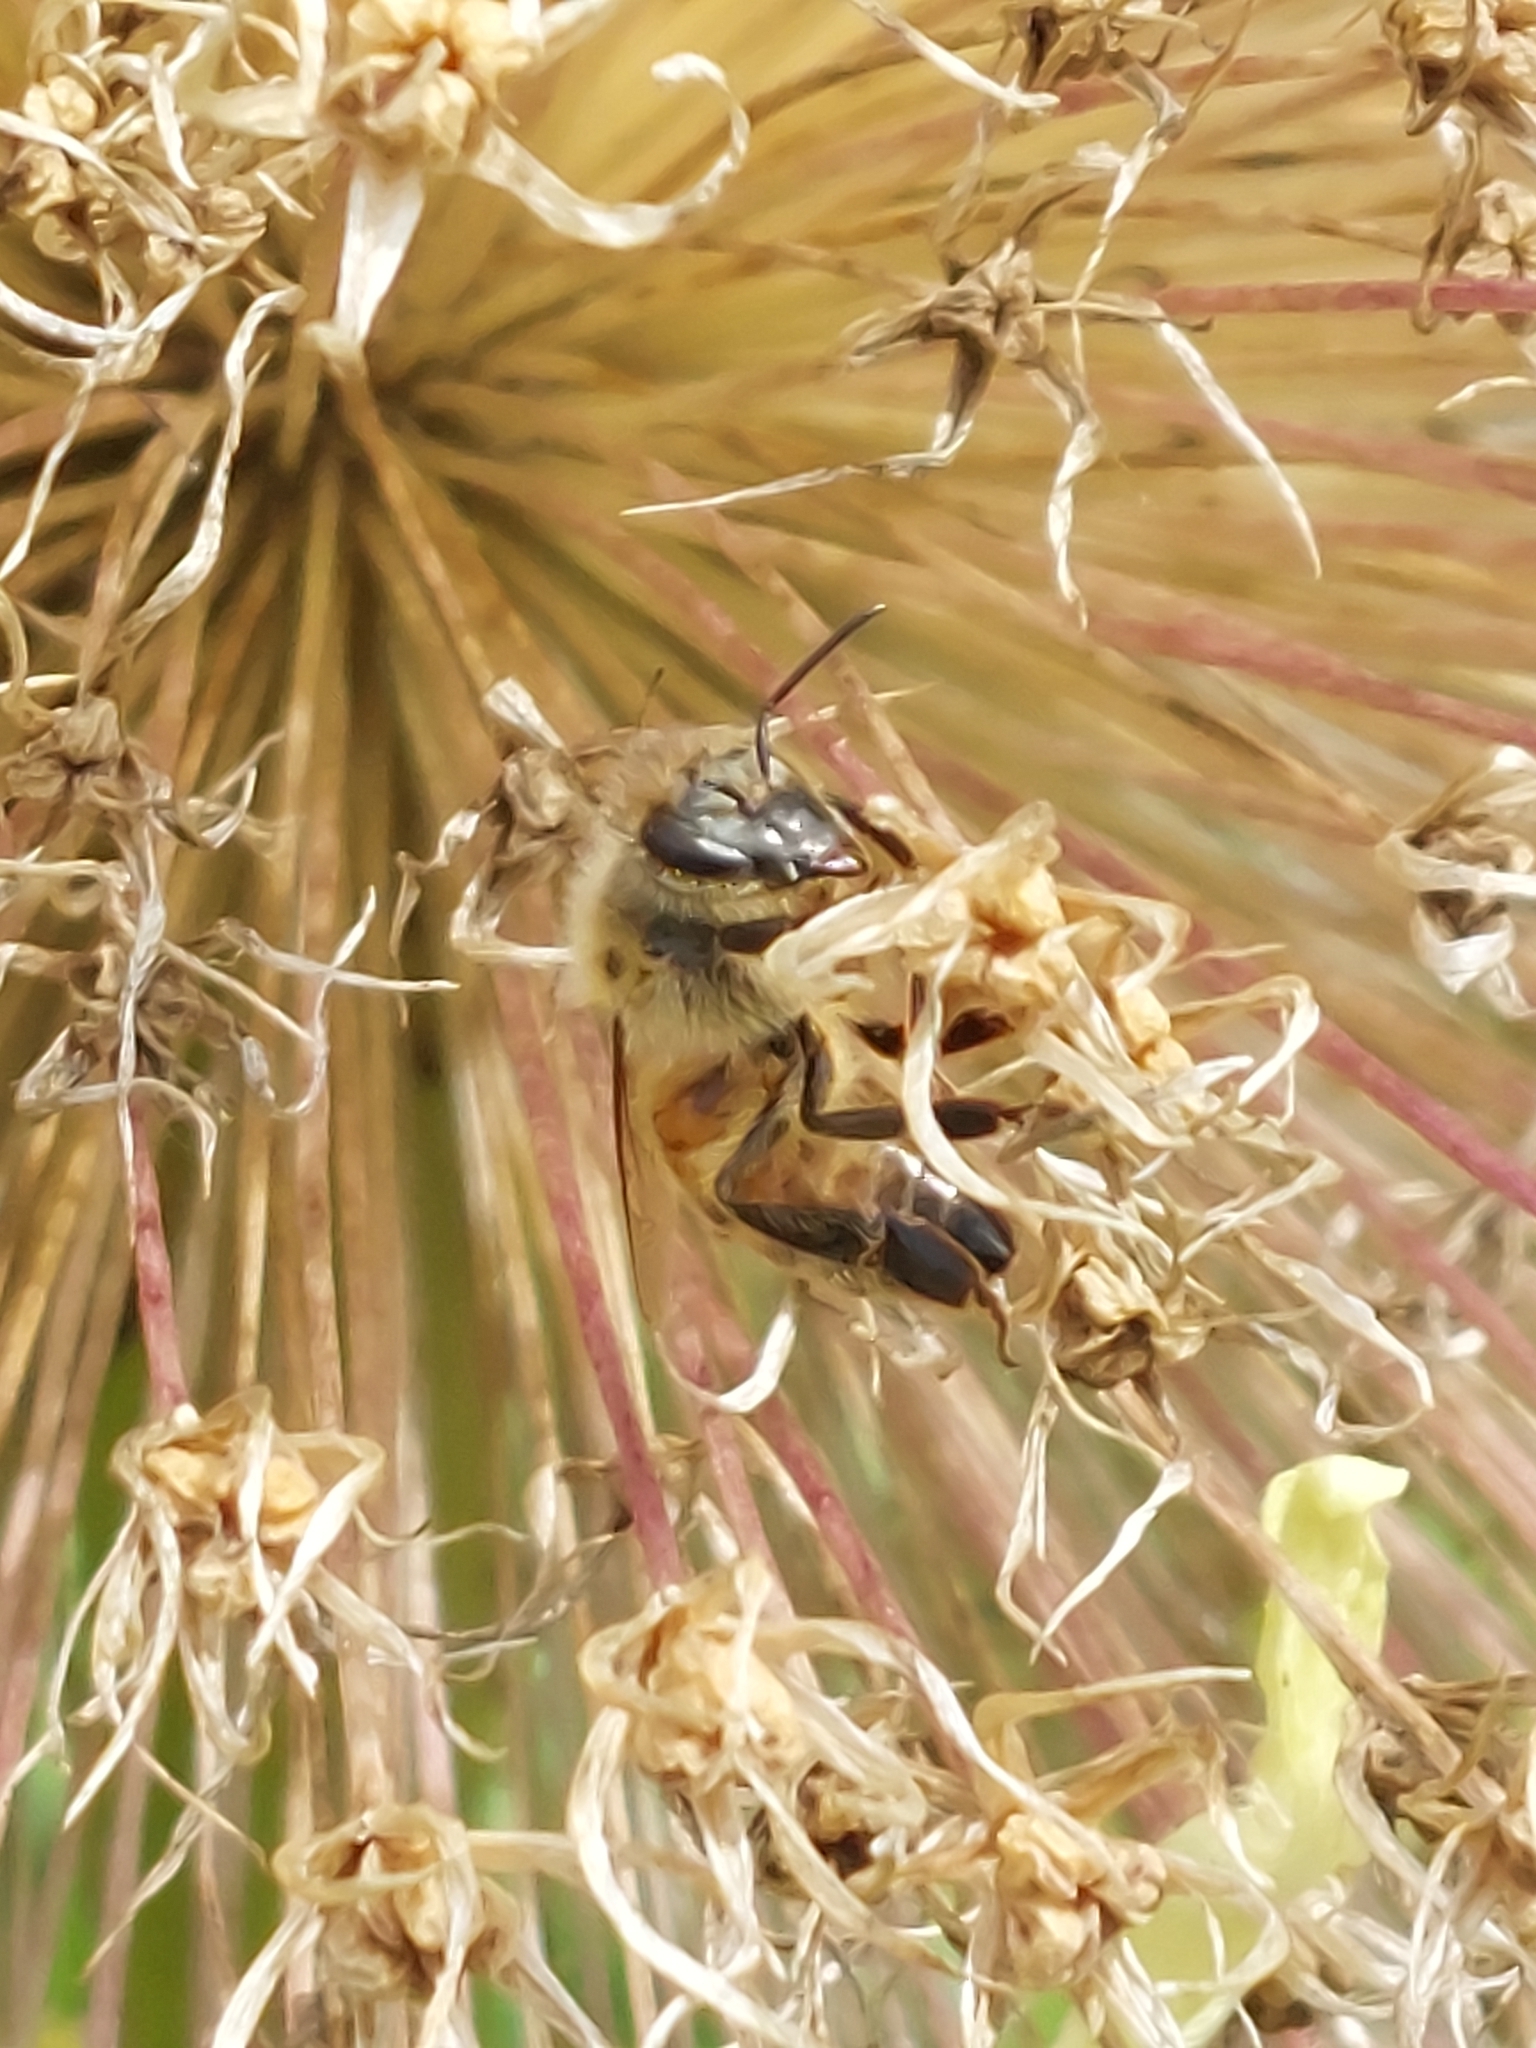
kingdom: Animalia
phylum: Arthropoda
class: Insecta
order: Hymenoptera
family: Apidae
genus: Apis
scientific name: Apis mellifera
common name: Honey bee
